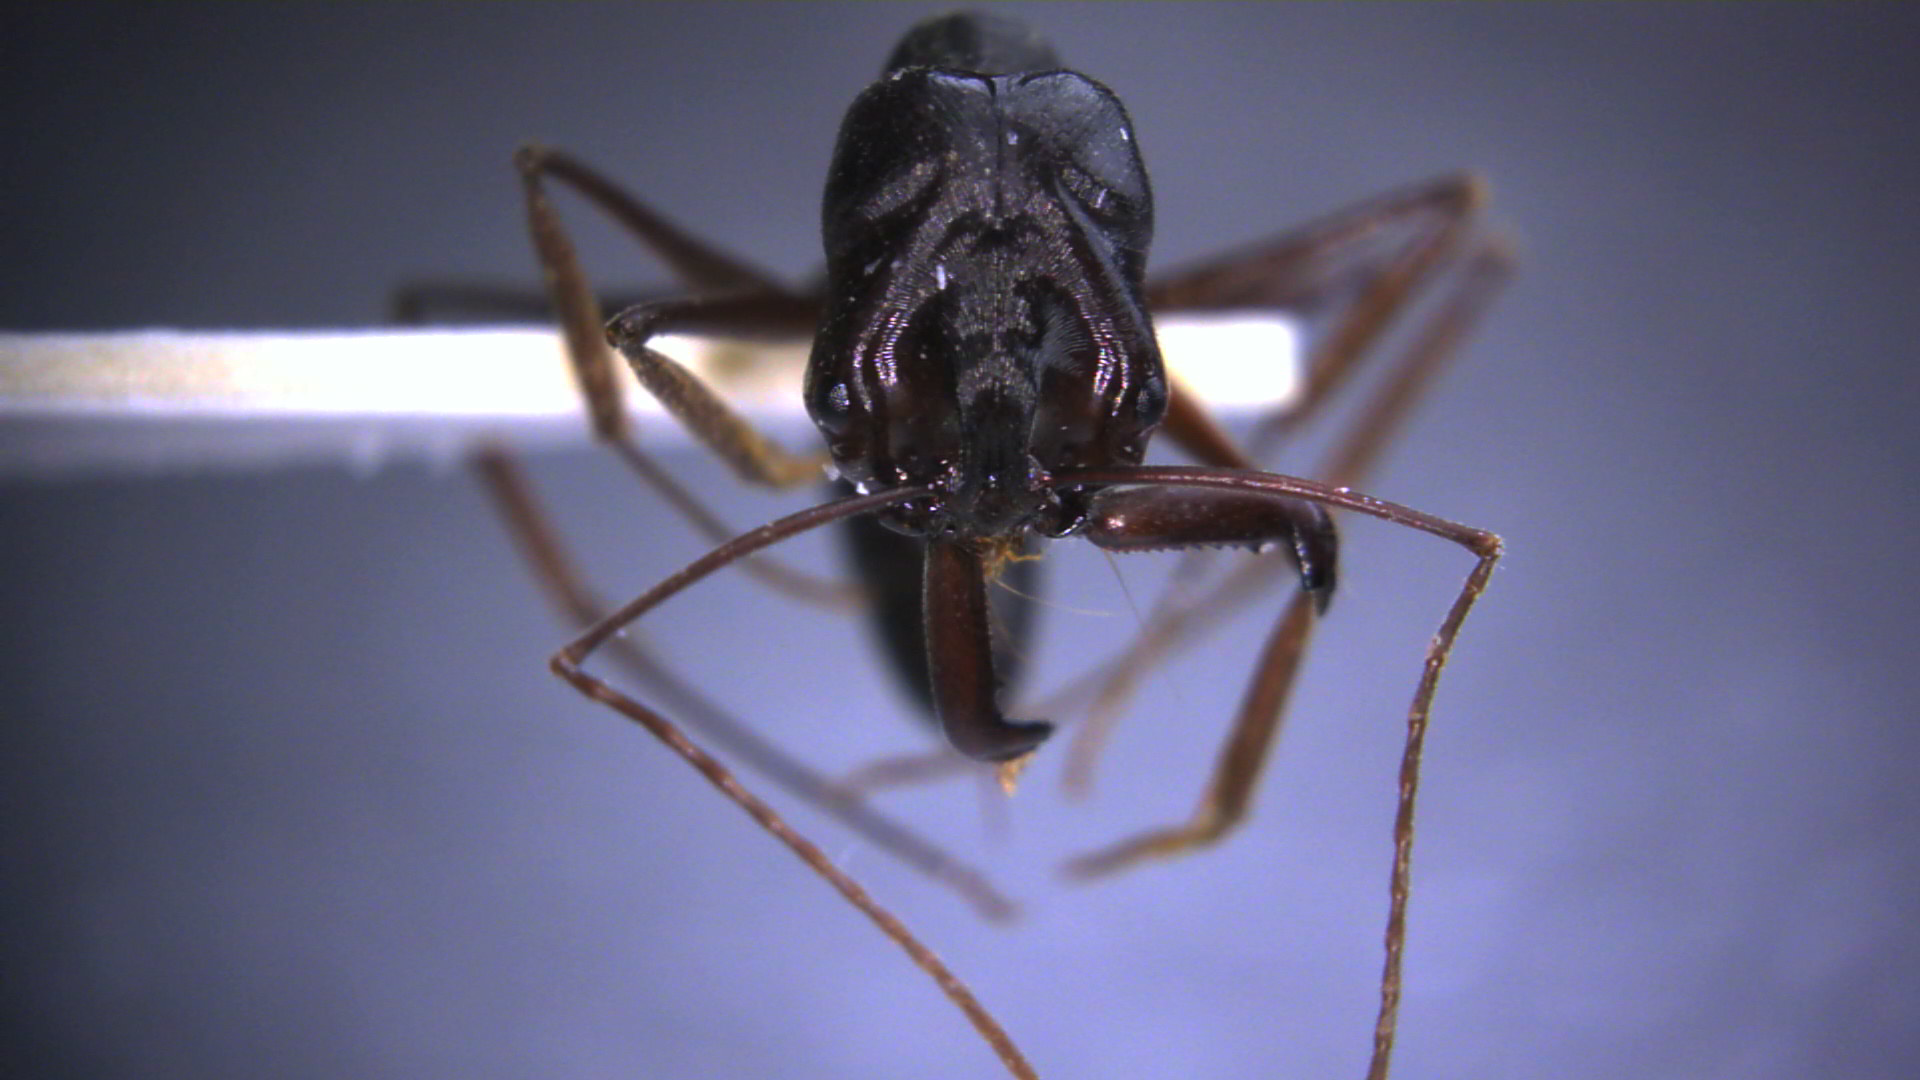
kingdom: Animalia
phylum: Arthropoda
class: Insecta
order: Hymenoptera
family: Formicidae
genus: Odontomachus
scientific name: Odontomachus monticola
